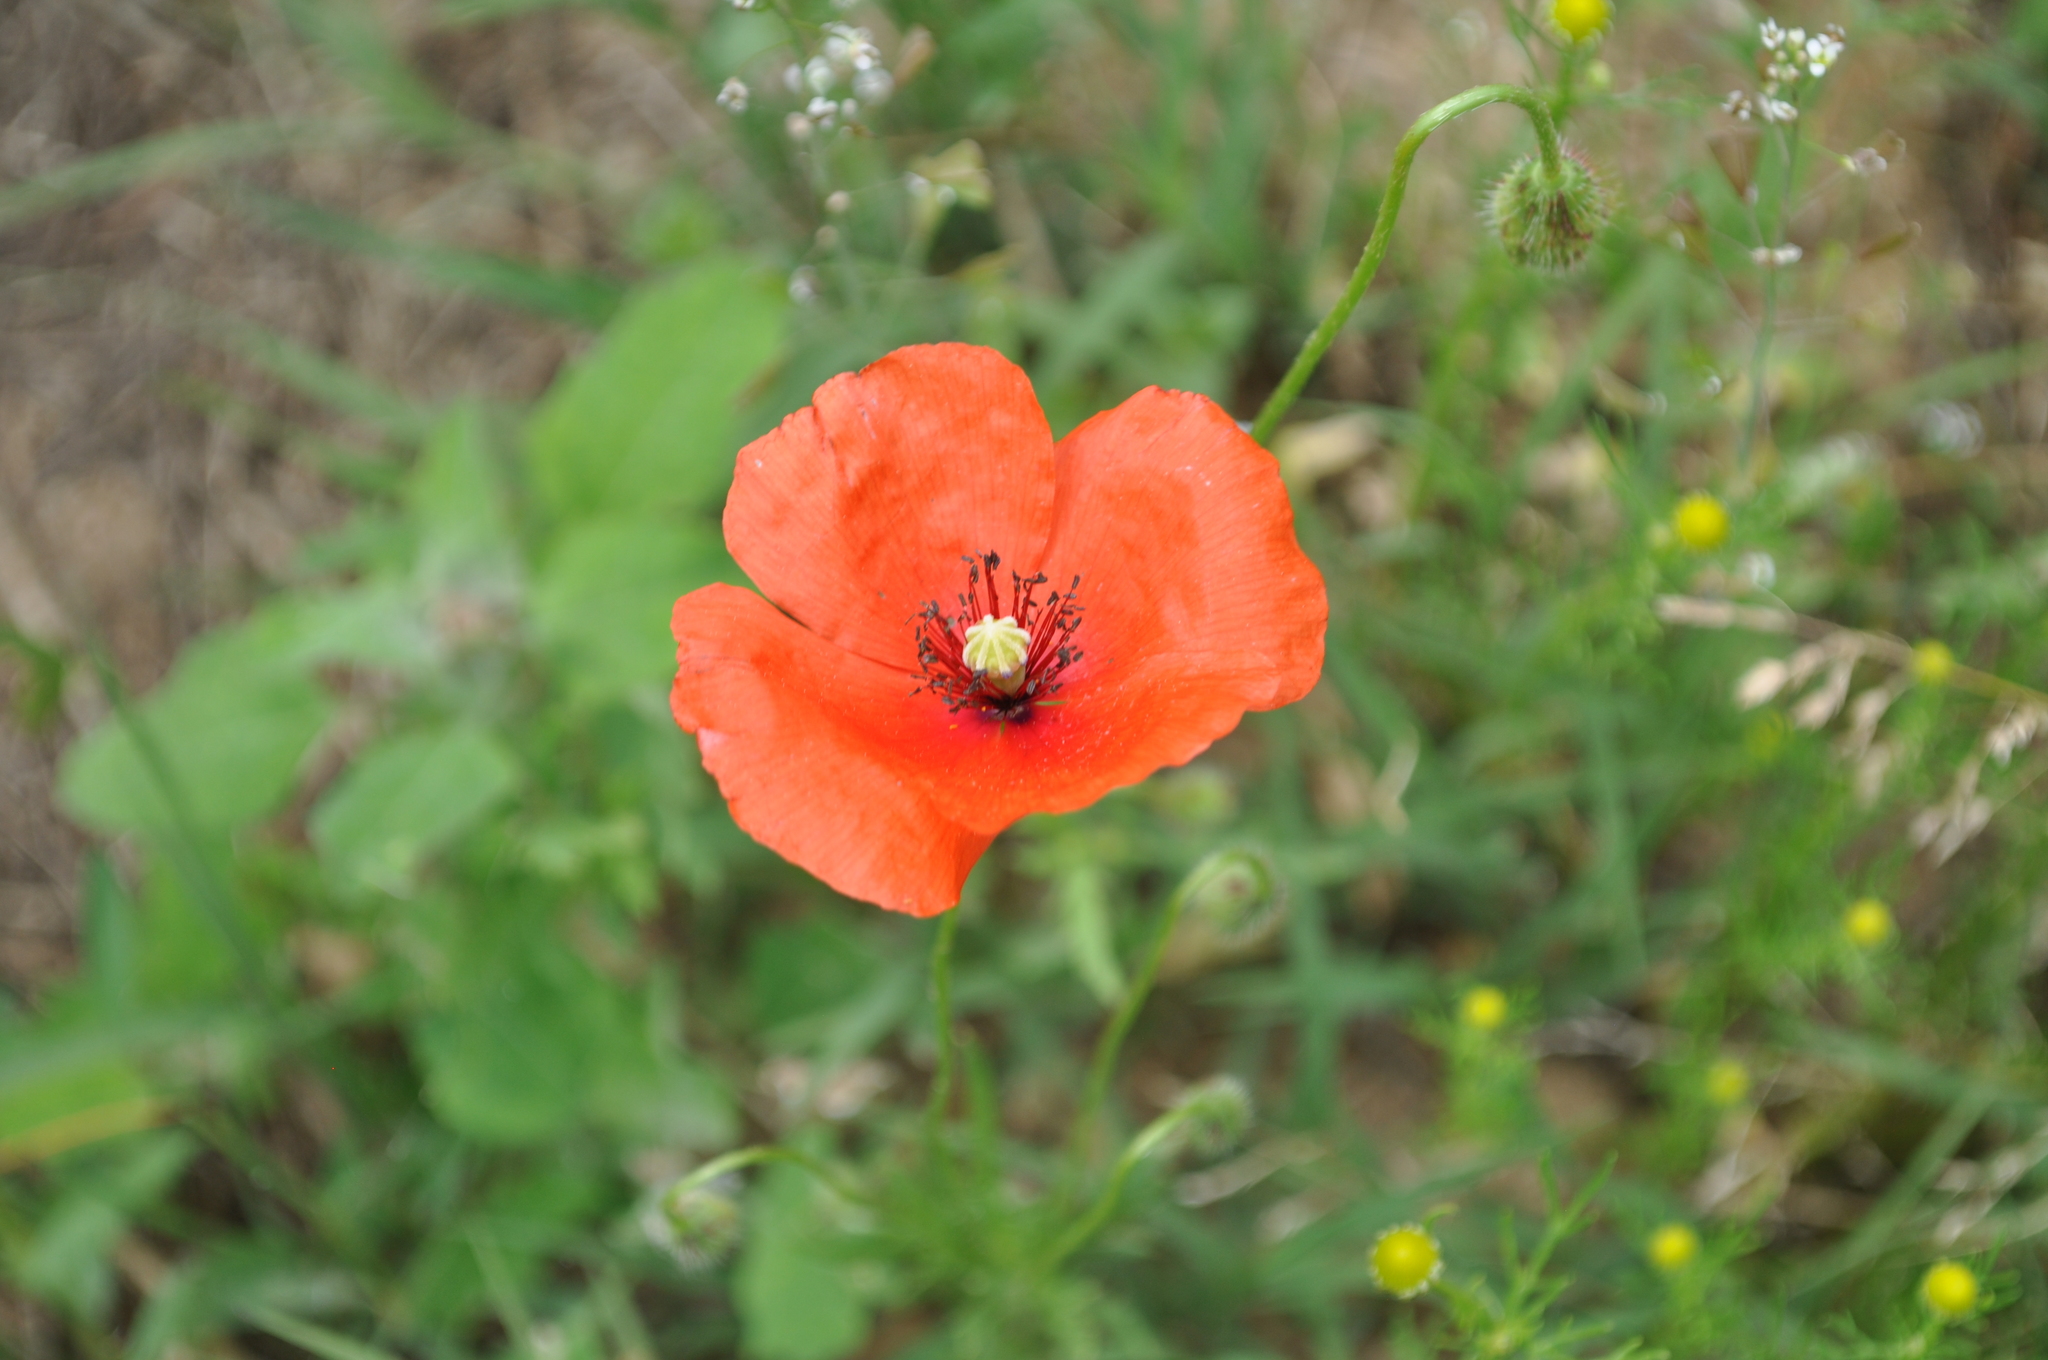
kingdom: Plantae
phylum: Tracheophyta
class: Magnoliopsida
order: Ranunculales
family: Papaveraceae
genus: Papaver
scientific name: Papaver rhoeas
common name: Corn poppy
